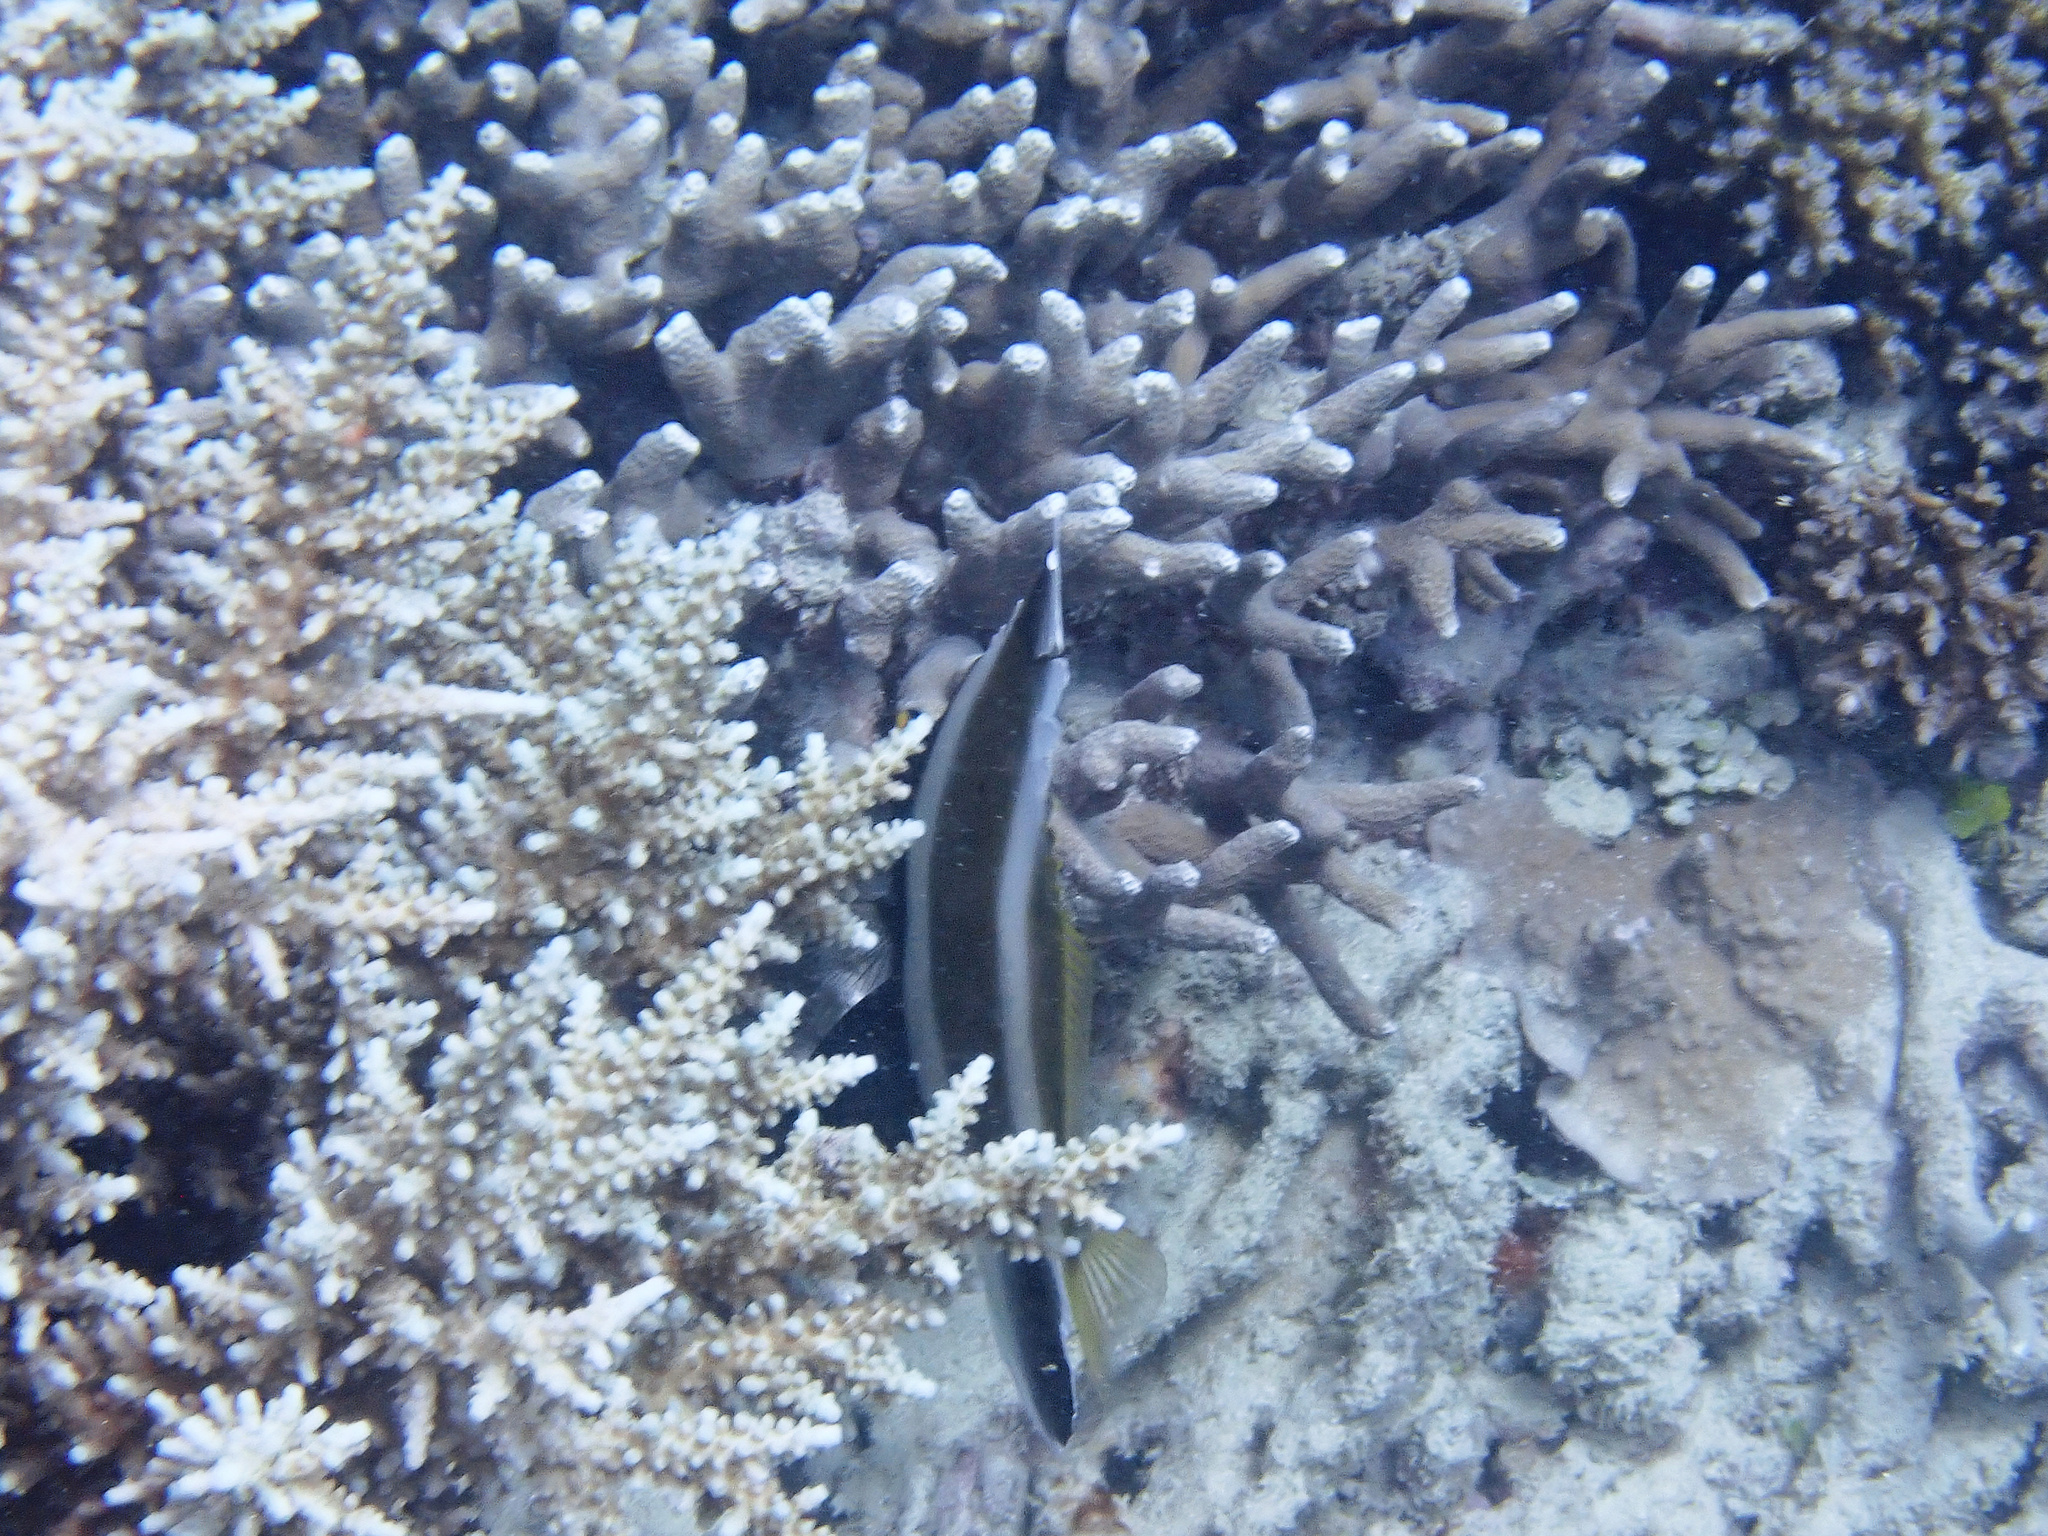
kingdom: Animalia
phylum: Chordata
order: Perciformes
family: Chaetodontidae
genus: Heniochus
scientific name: Heniochus chrysostomus
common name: Horned bannerfish
